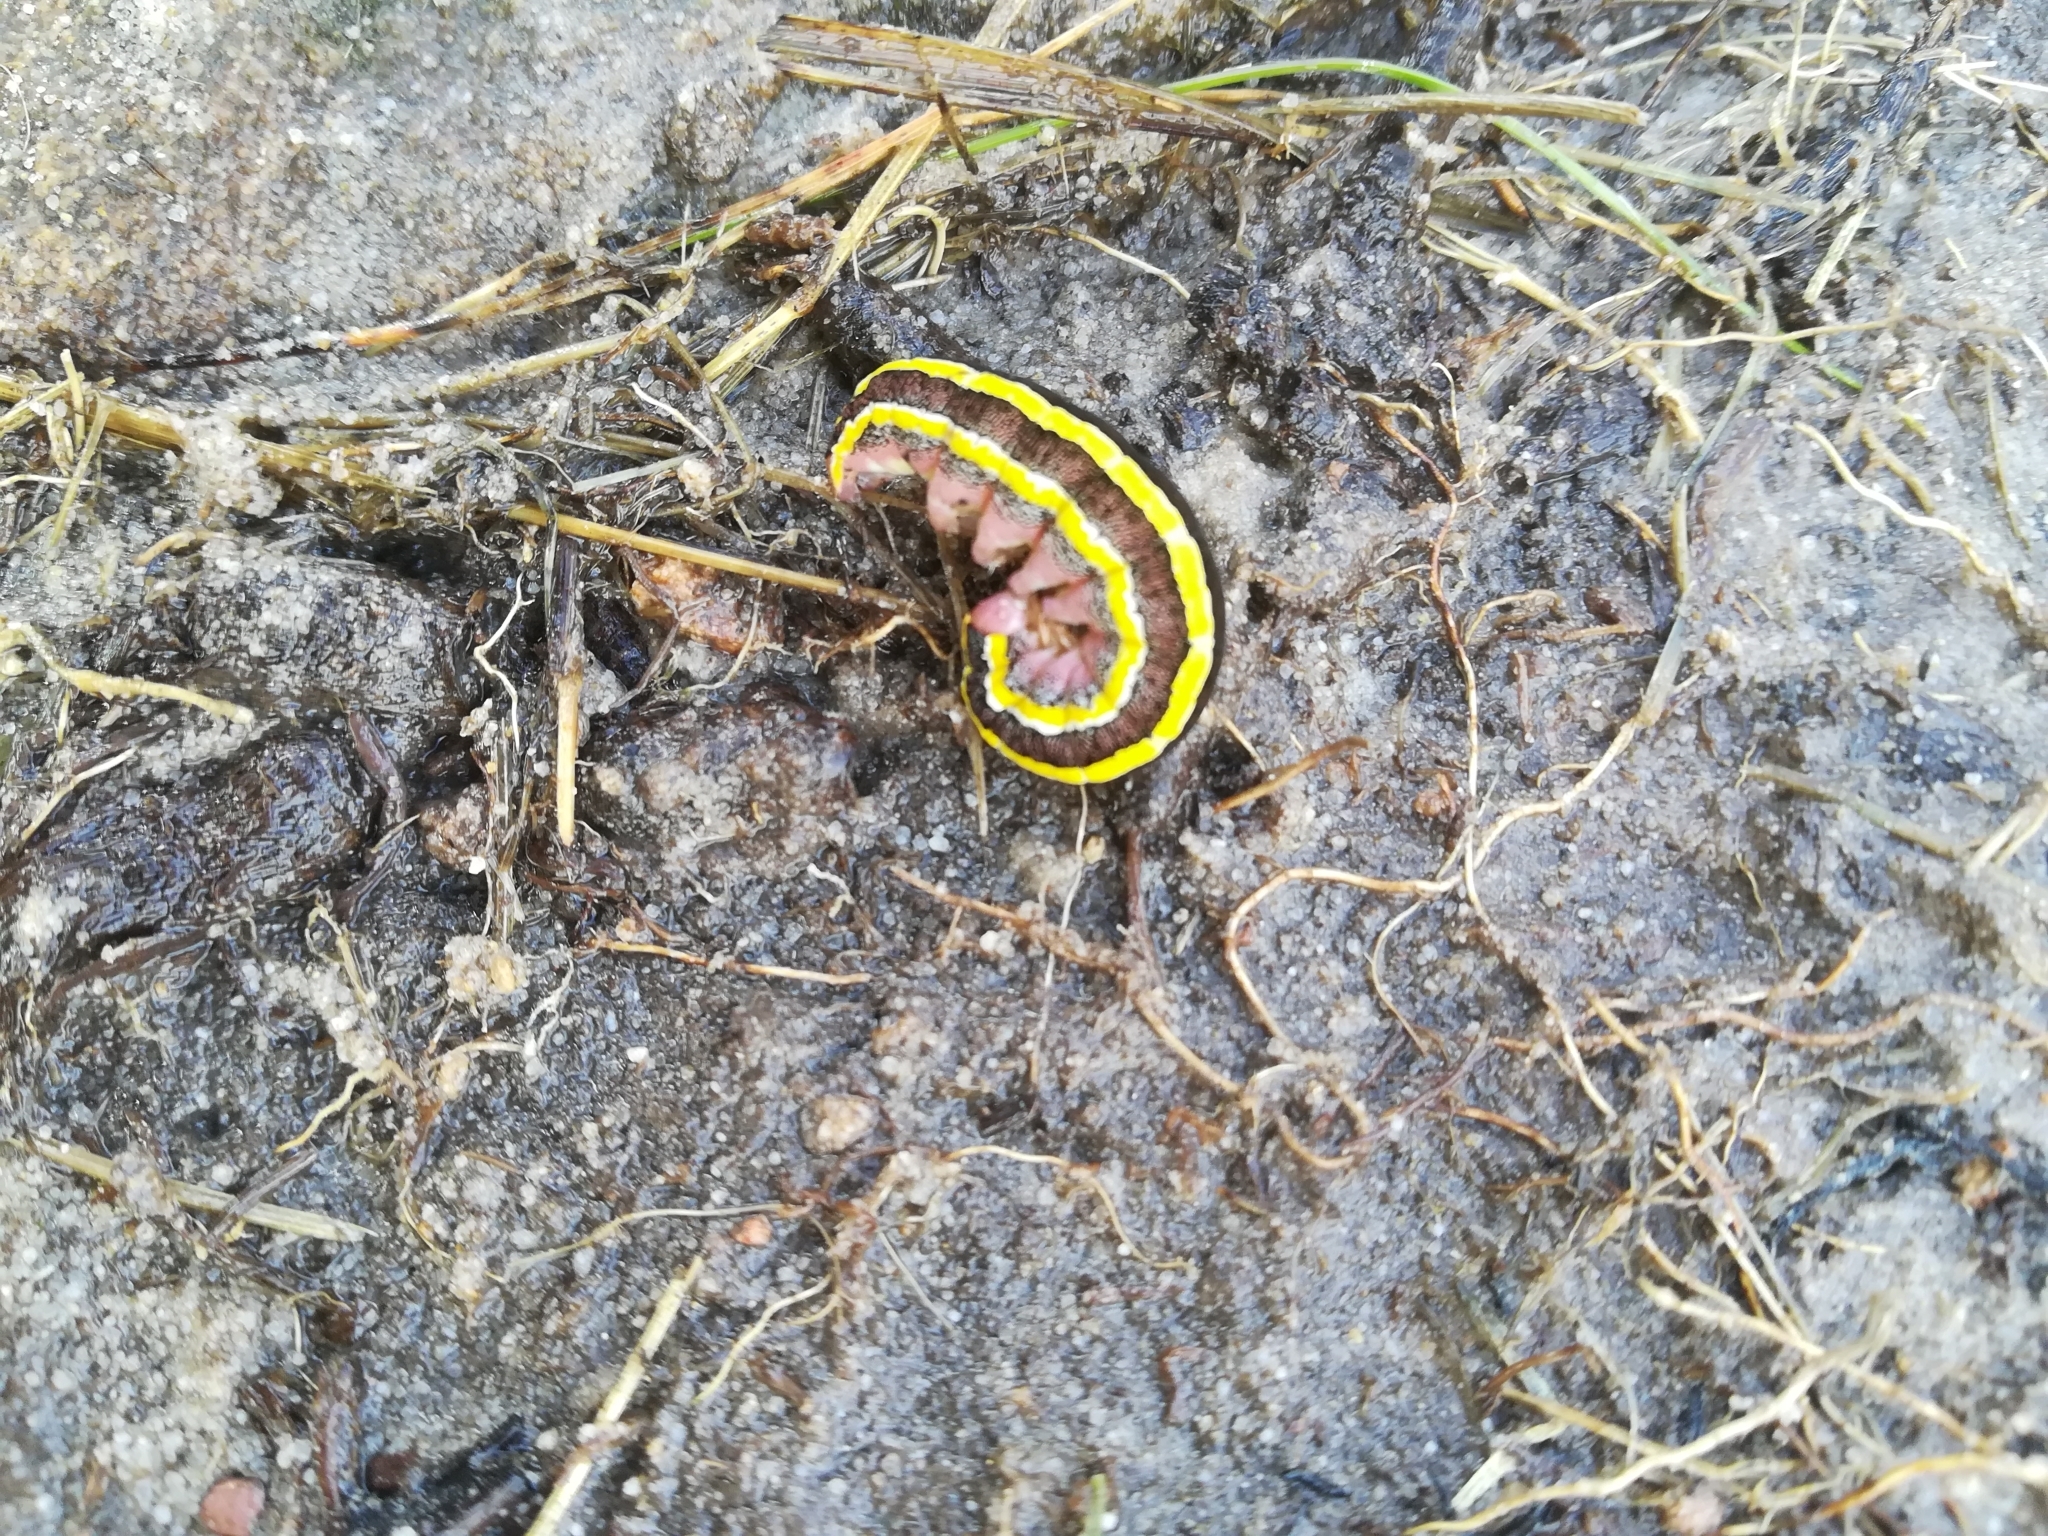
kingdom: Animalia
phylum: Arthropoda
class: Insecta
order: Lepidoptera
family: Noctuidae
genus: Ceramica
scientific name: Ceramica pisi
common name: Broom moth
